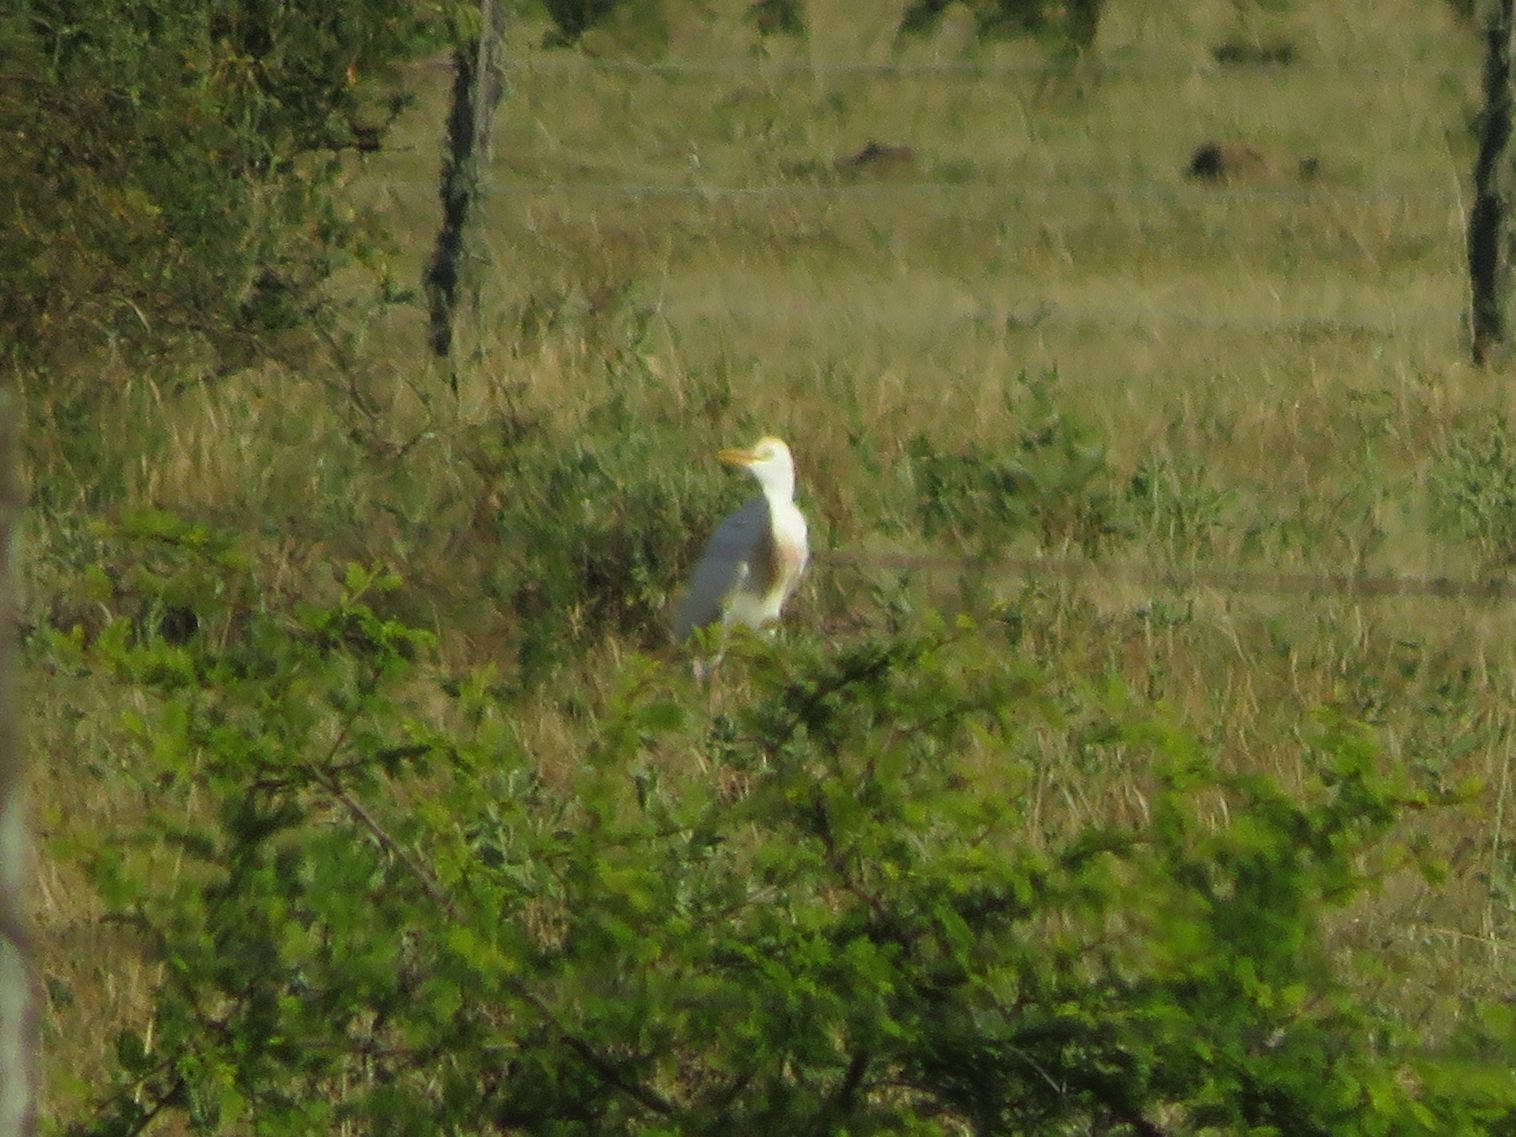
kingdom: Animalia
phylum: Chordata
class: Aves
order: Pelecaniformes
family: Ardeidae
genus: Bubulcus
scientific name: Bubulcus ibis
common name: Cattle egret
